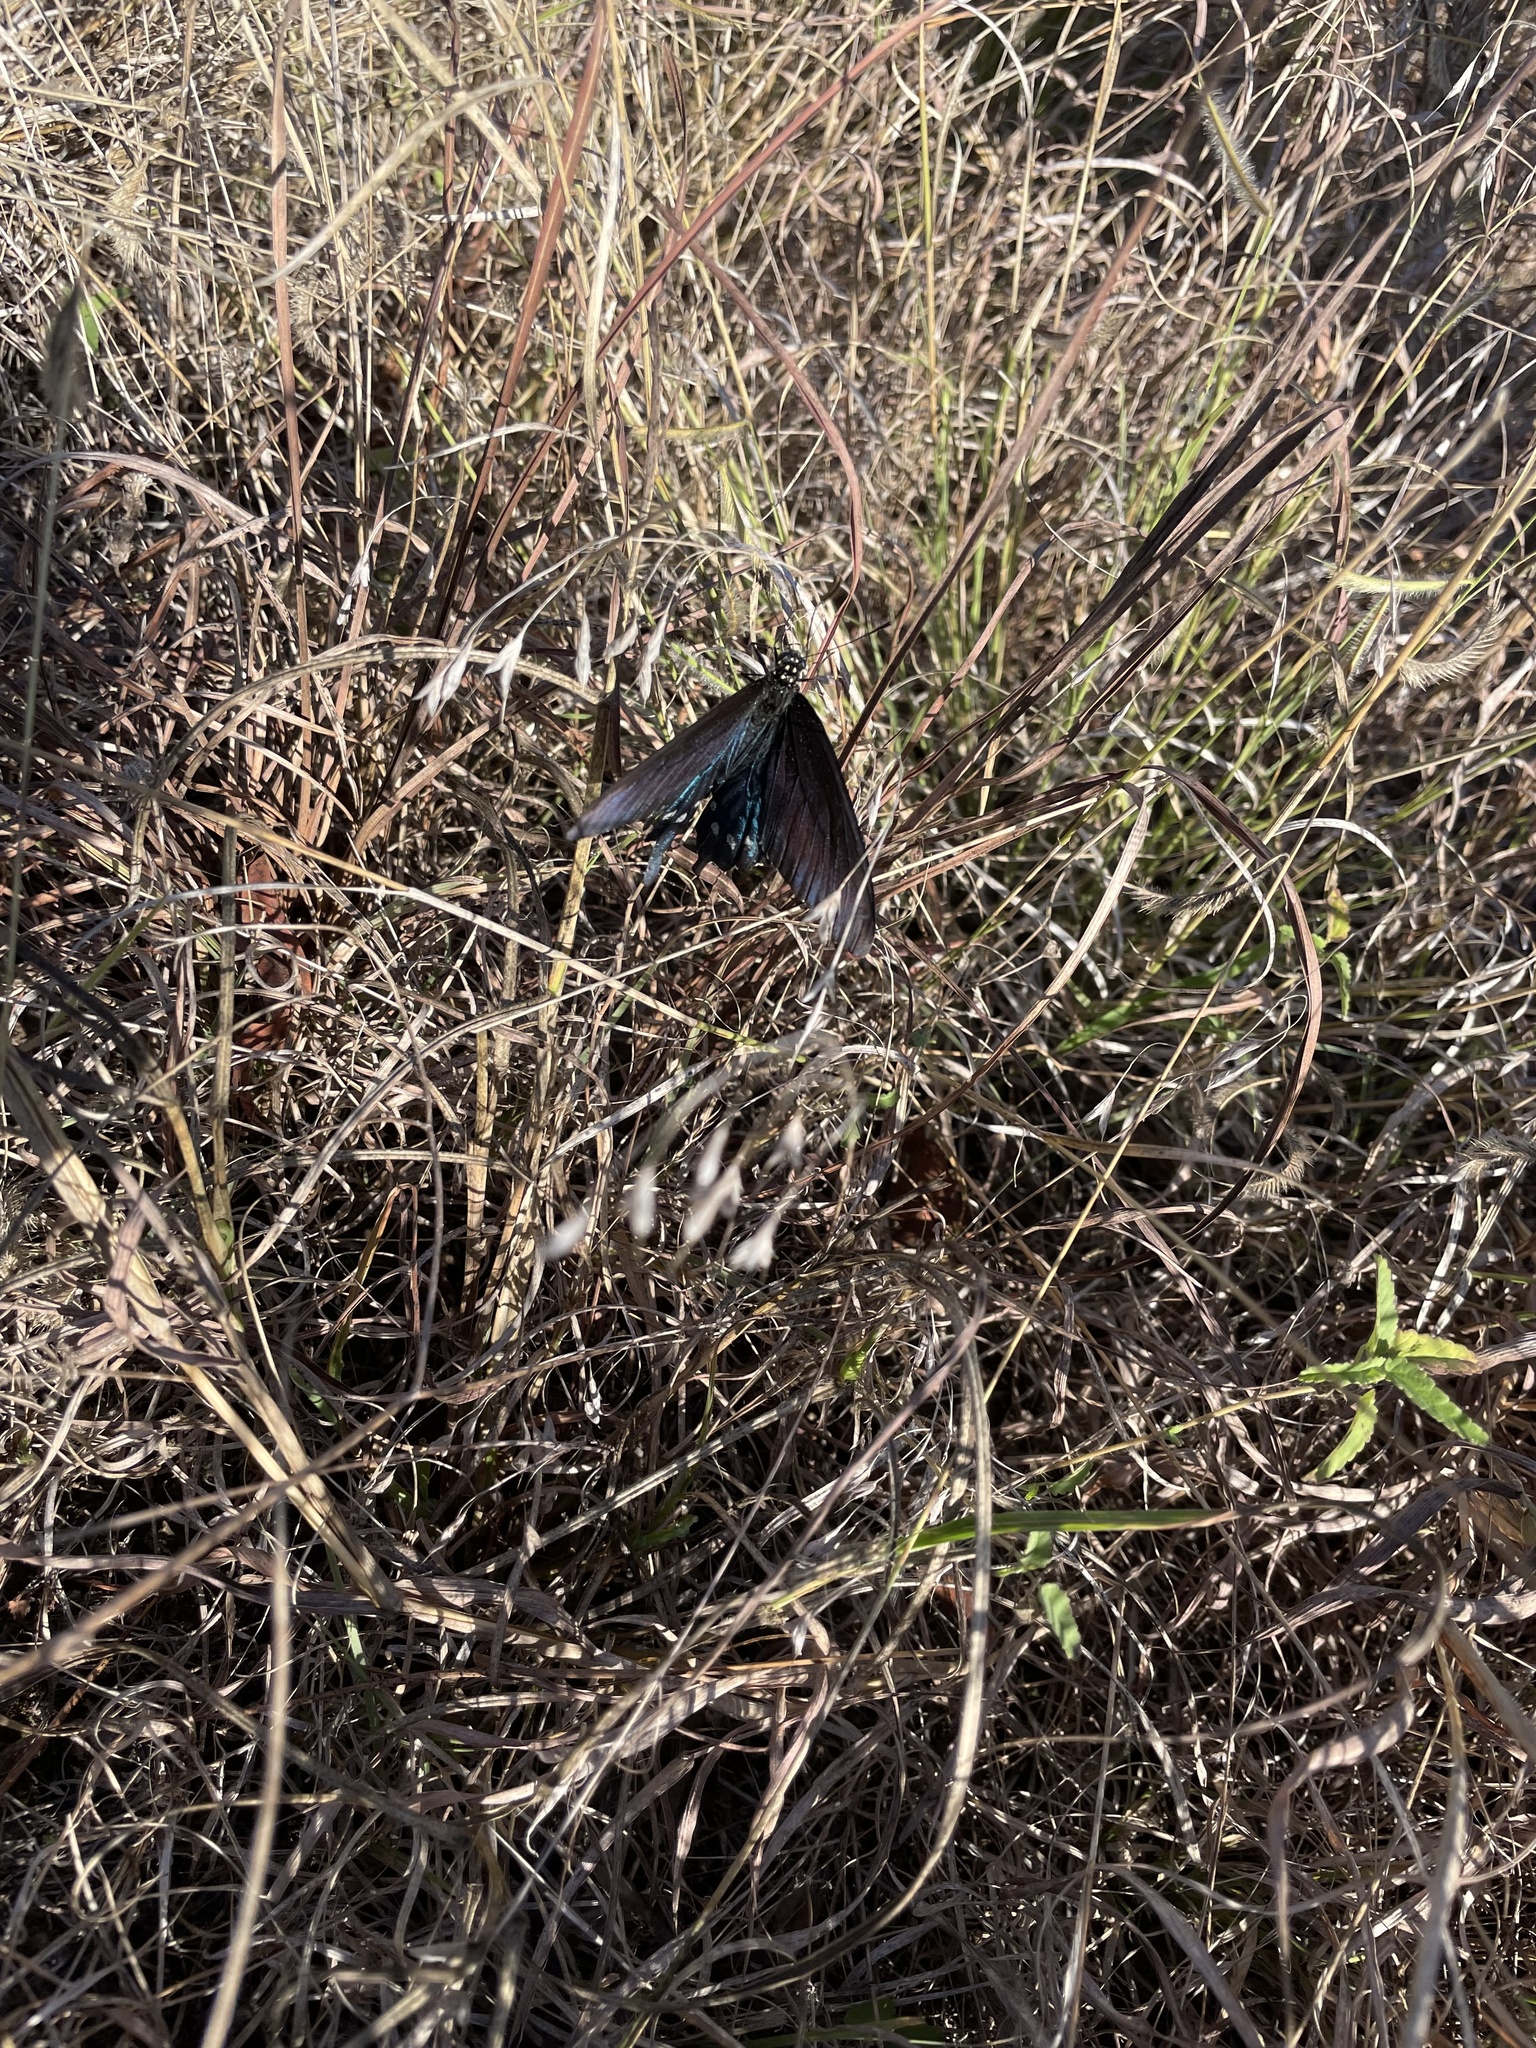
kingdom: Animalia
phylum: Arthropoda
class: Insecta
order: Lepidoptera
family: Papilionidae
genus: Battus
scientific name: Battus philenor
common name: Pipevine swallowtail
